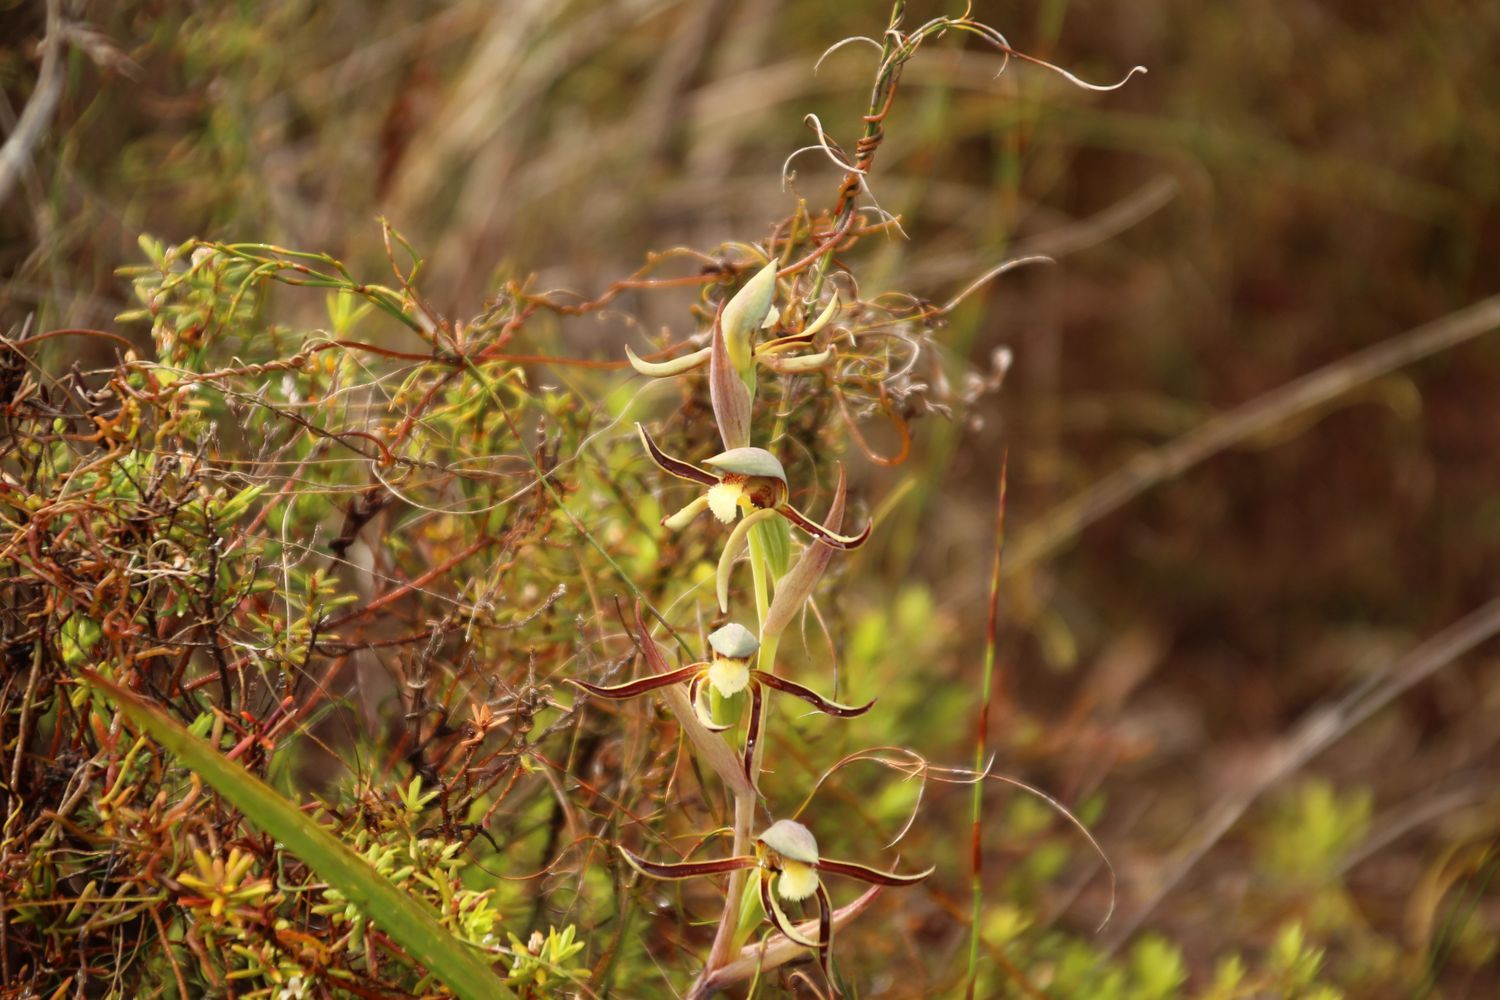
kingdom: Plantae
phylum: Tracheophyta
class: Liliopsida
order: Asparagales
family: Orchidaceae
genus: Lyperanthus
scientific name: Lyperanthus serratus
